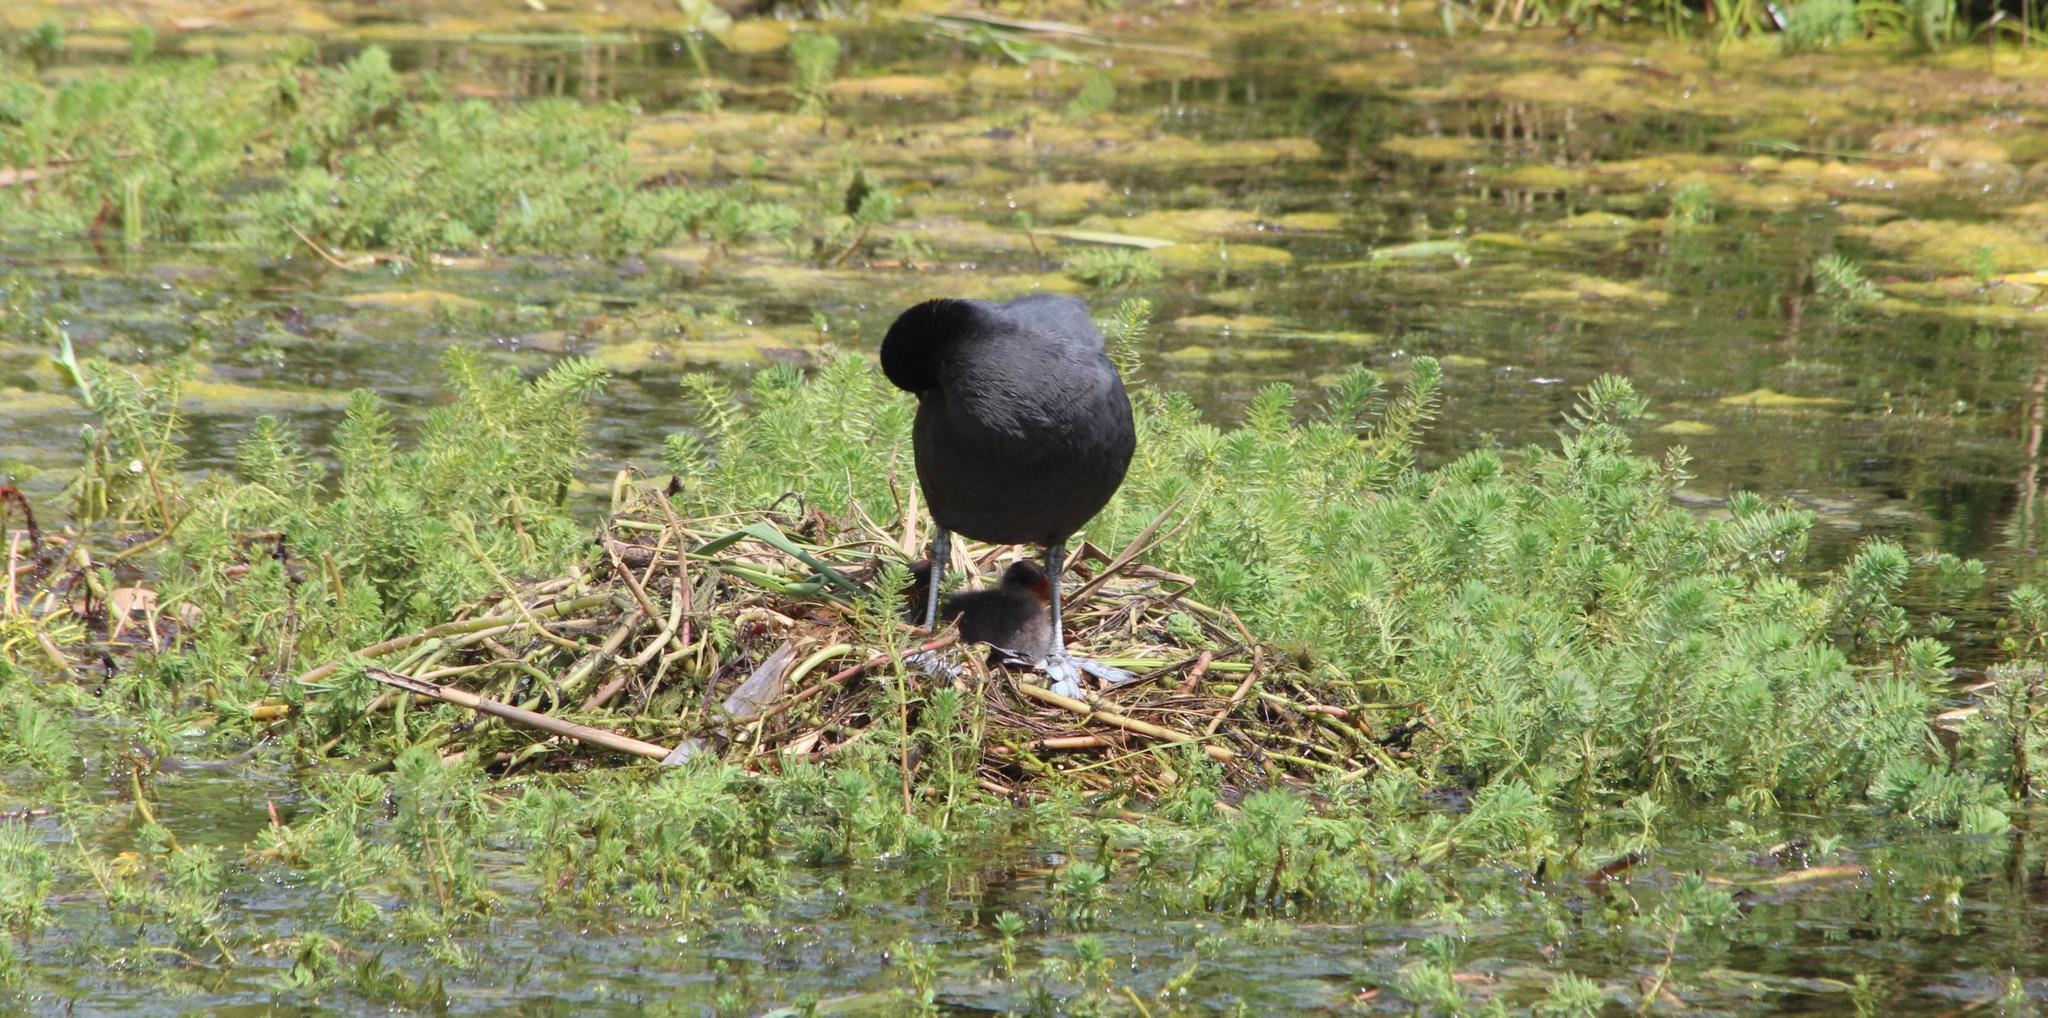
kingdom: Animalia
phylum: Chordata
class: Aves
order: Gruiformes
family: Rallidae
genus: Fulica
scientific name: Fulica cristata
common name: Red-knobbed coot
